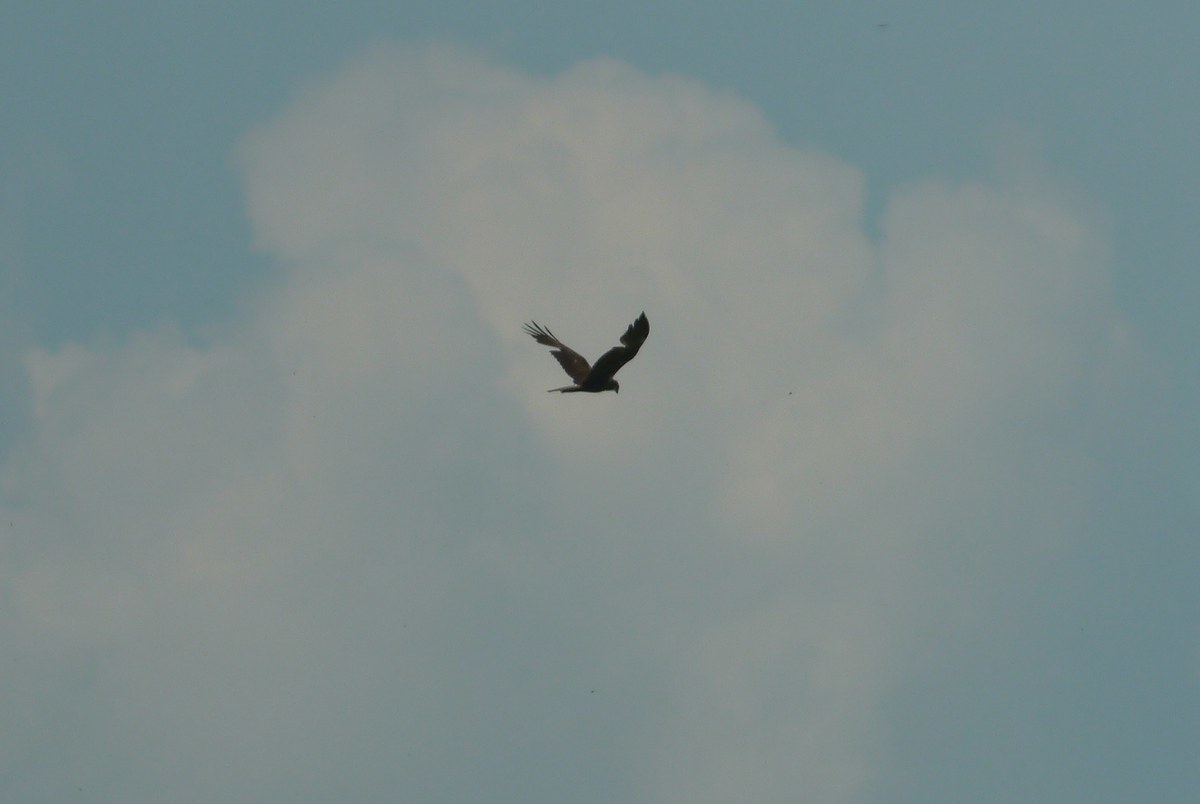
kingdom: Animalia
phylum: Chordata
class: Aves
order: Accipitriformes
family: Accipitridae
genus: Circus
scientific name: Circus aeruginosus
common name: Western marsh harrier
